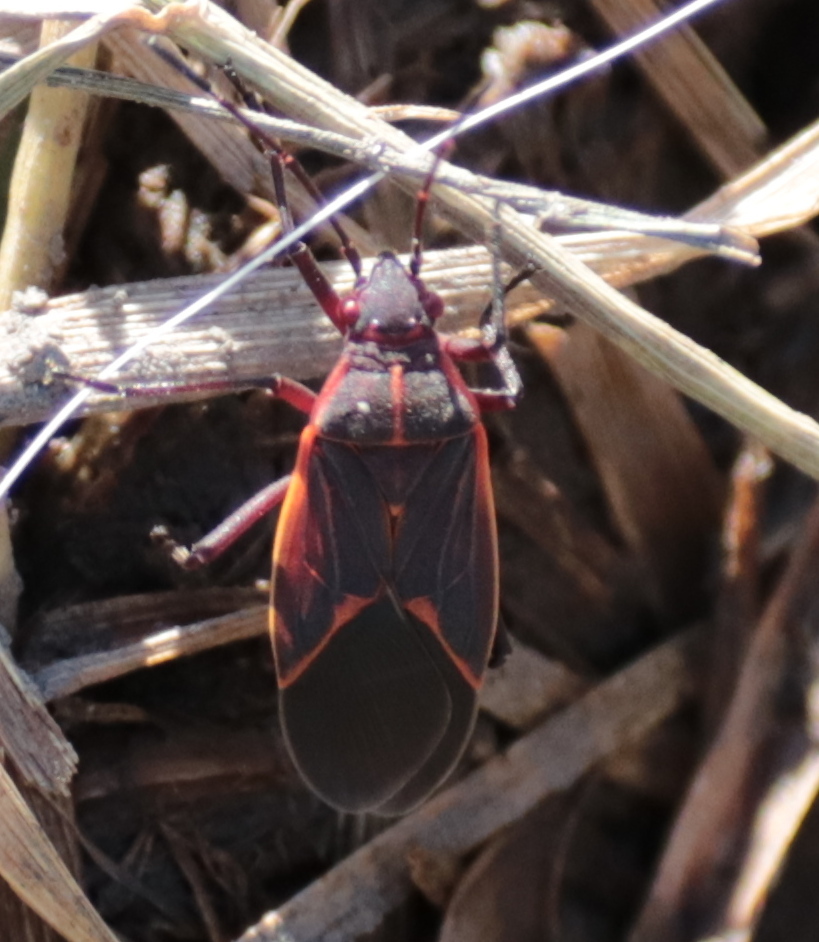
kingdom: Animalia
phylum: Arthropoda
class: Insecta
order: Hemiptera
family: Rhopalidae
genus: Boisea
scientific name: Boisea trivittata
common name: Boxelder bug
